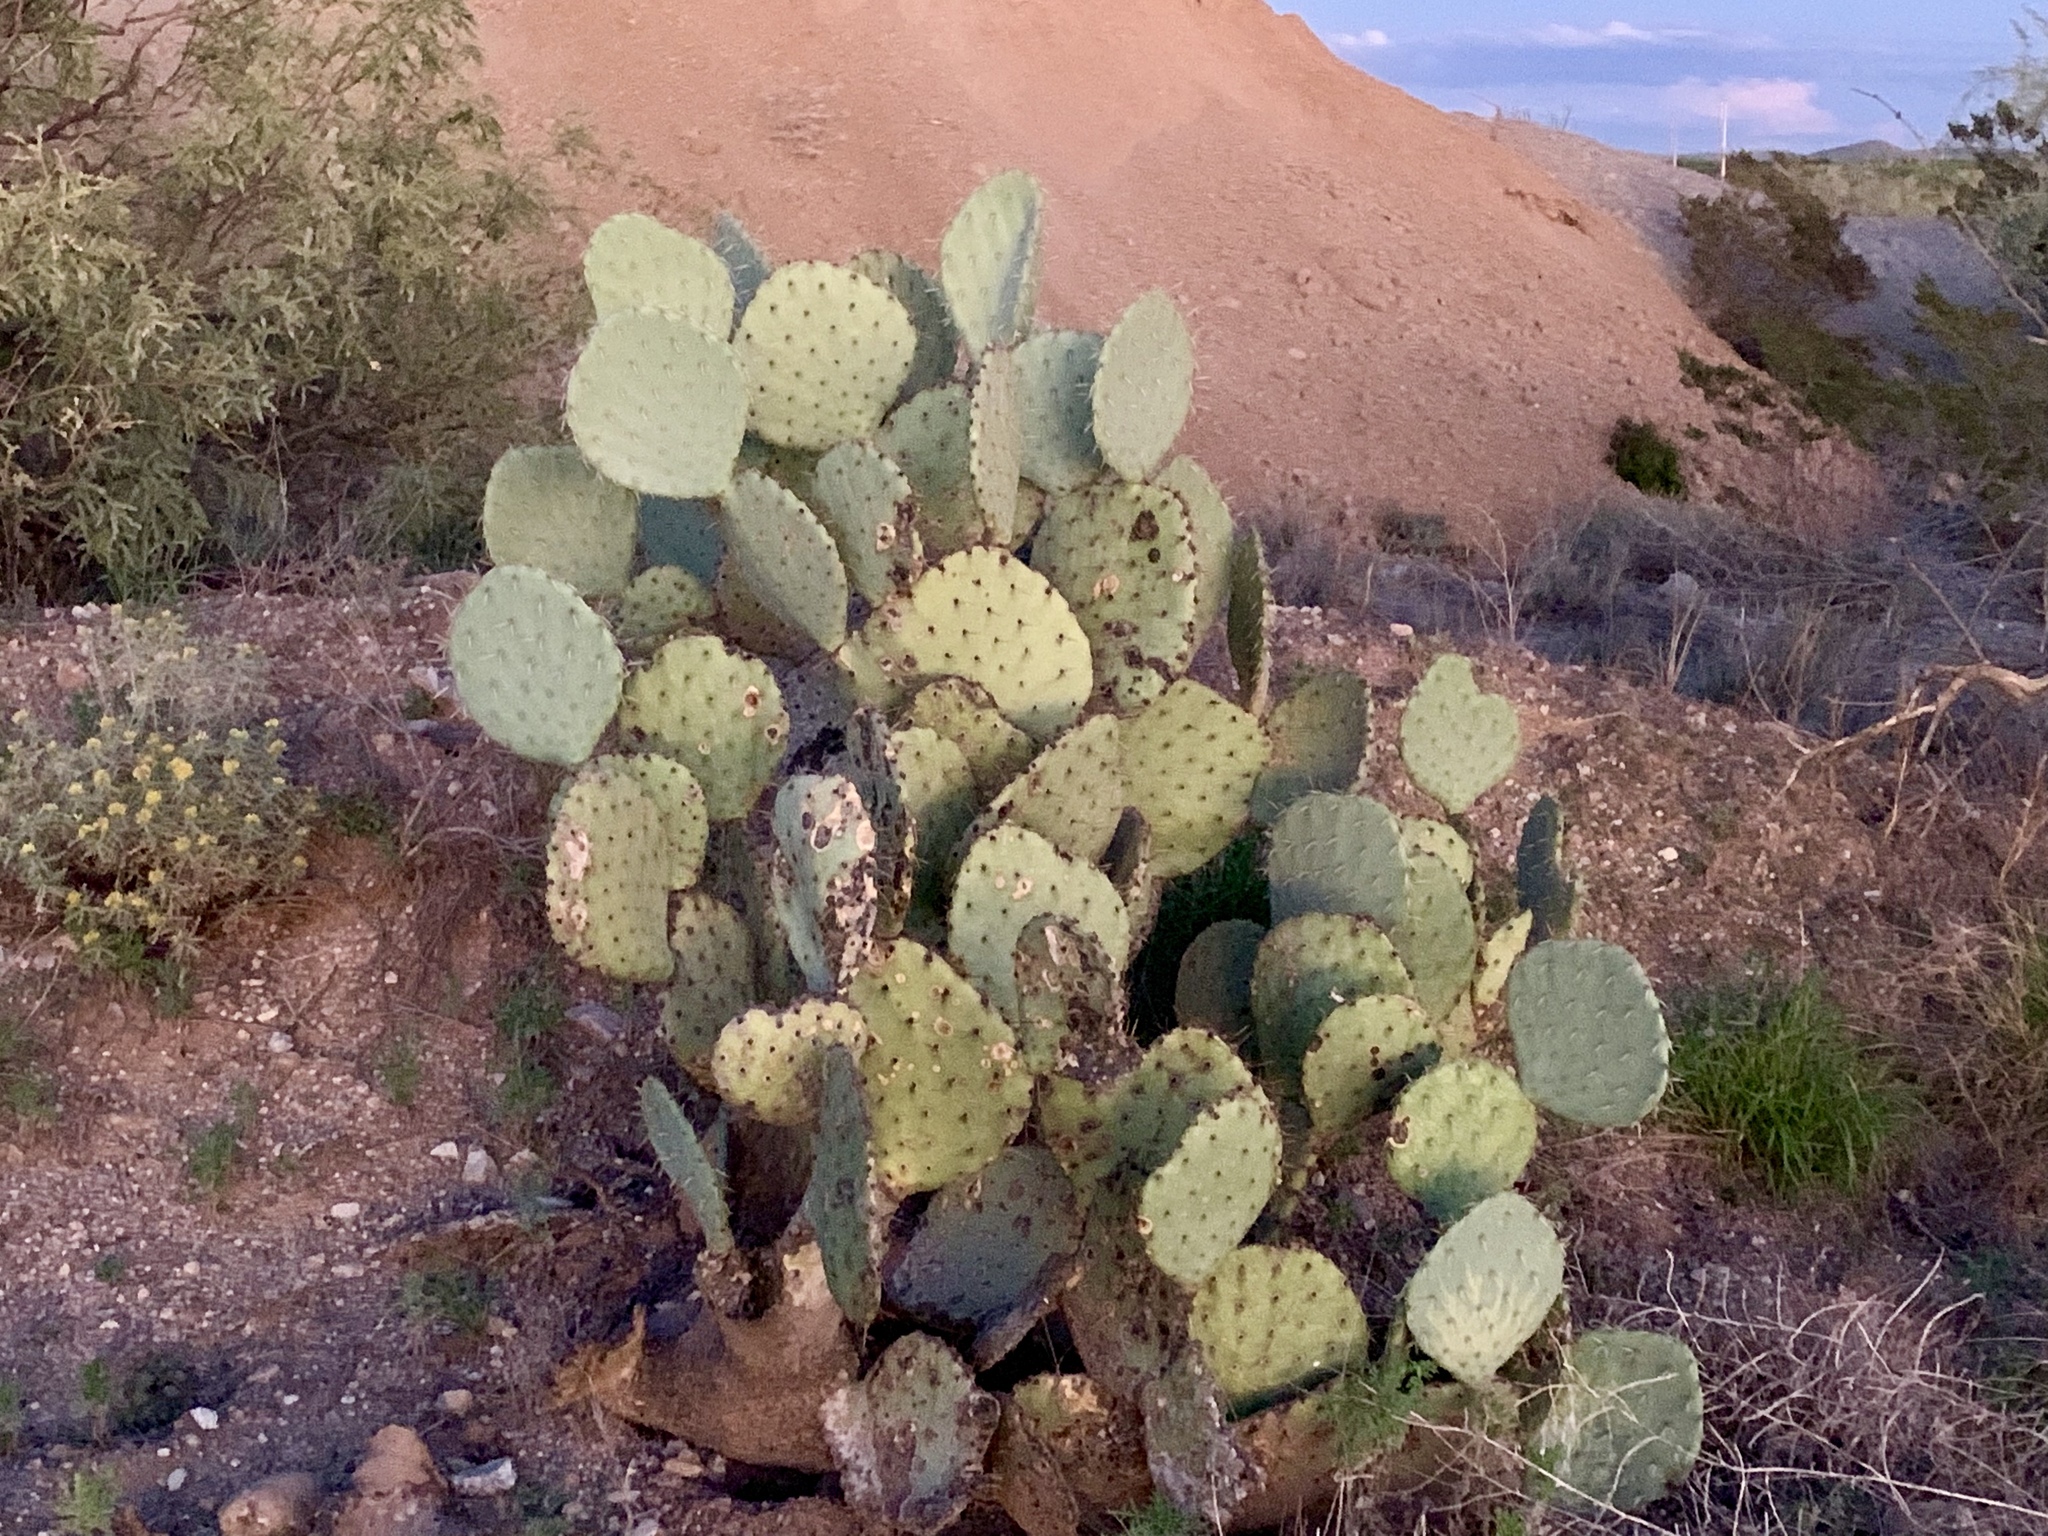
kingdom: Plantae
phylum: Tracheophyta
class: Magnoliopsida
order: Caryophyllales
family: Cactaceae
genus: Opuntia
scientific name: Opuntia engelmannii
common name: Cactus-apple
